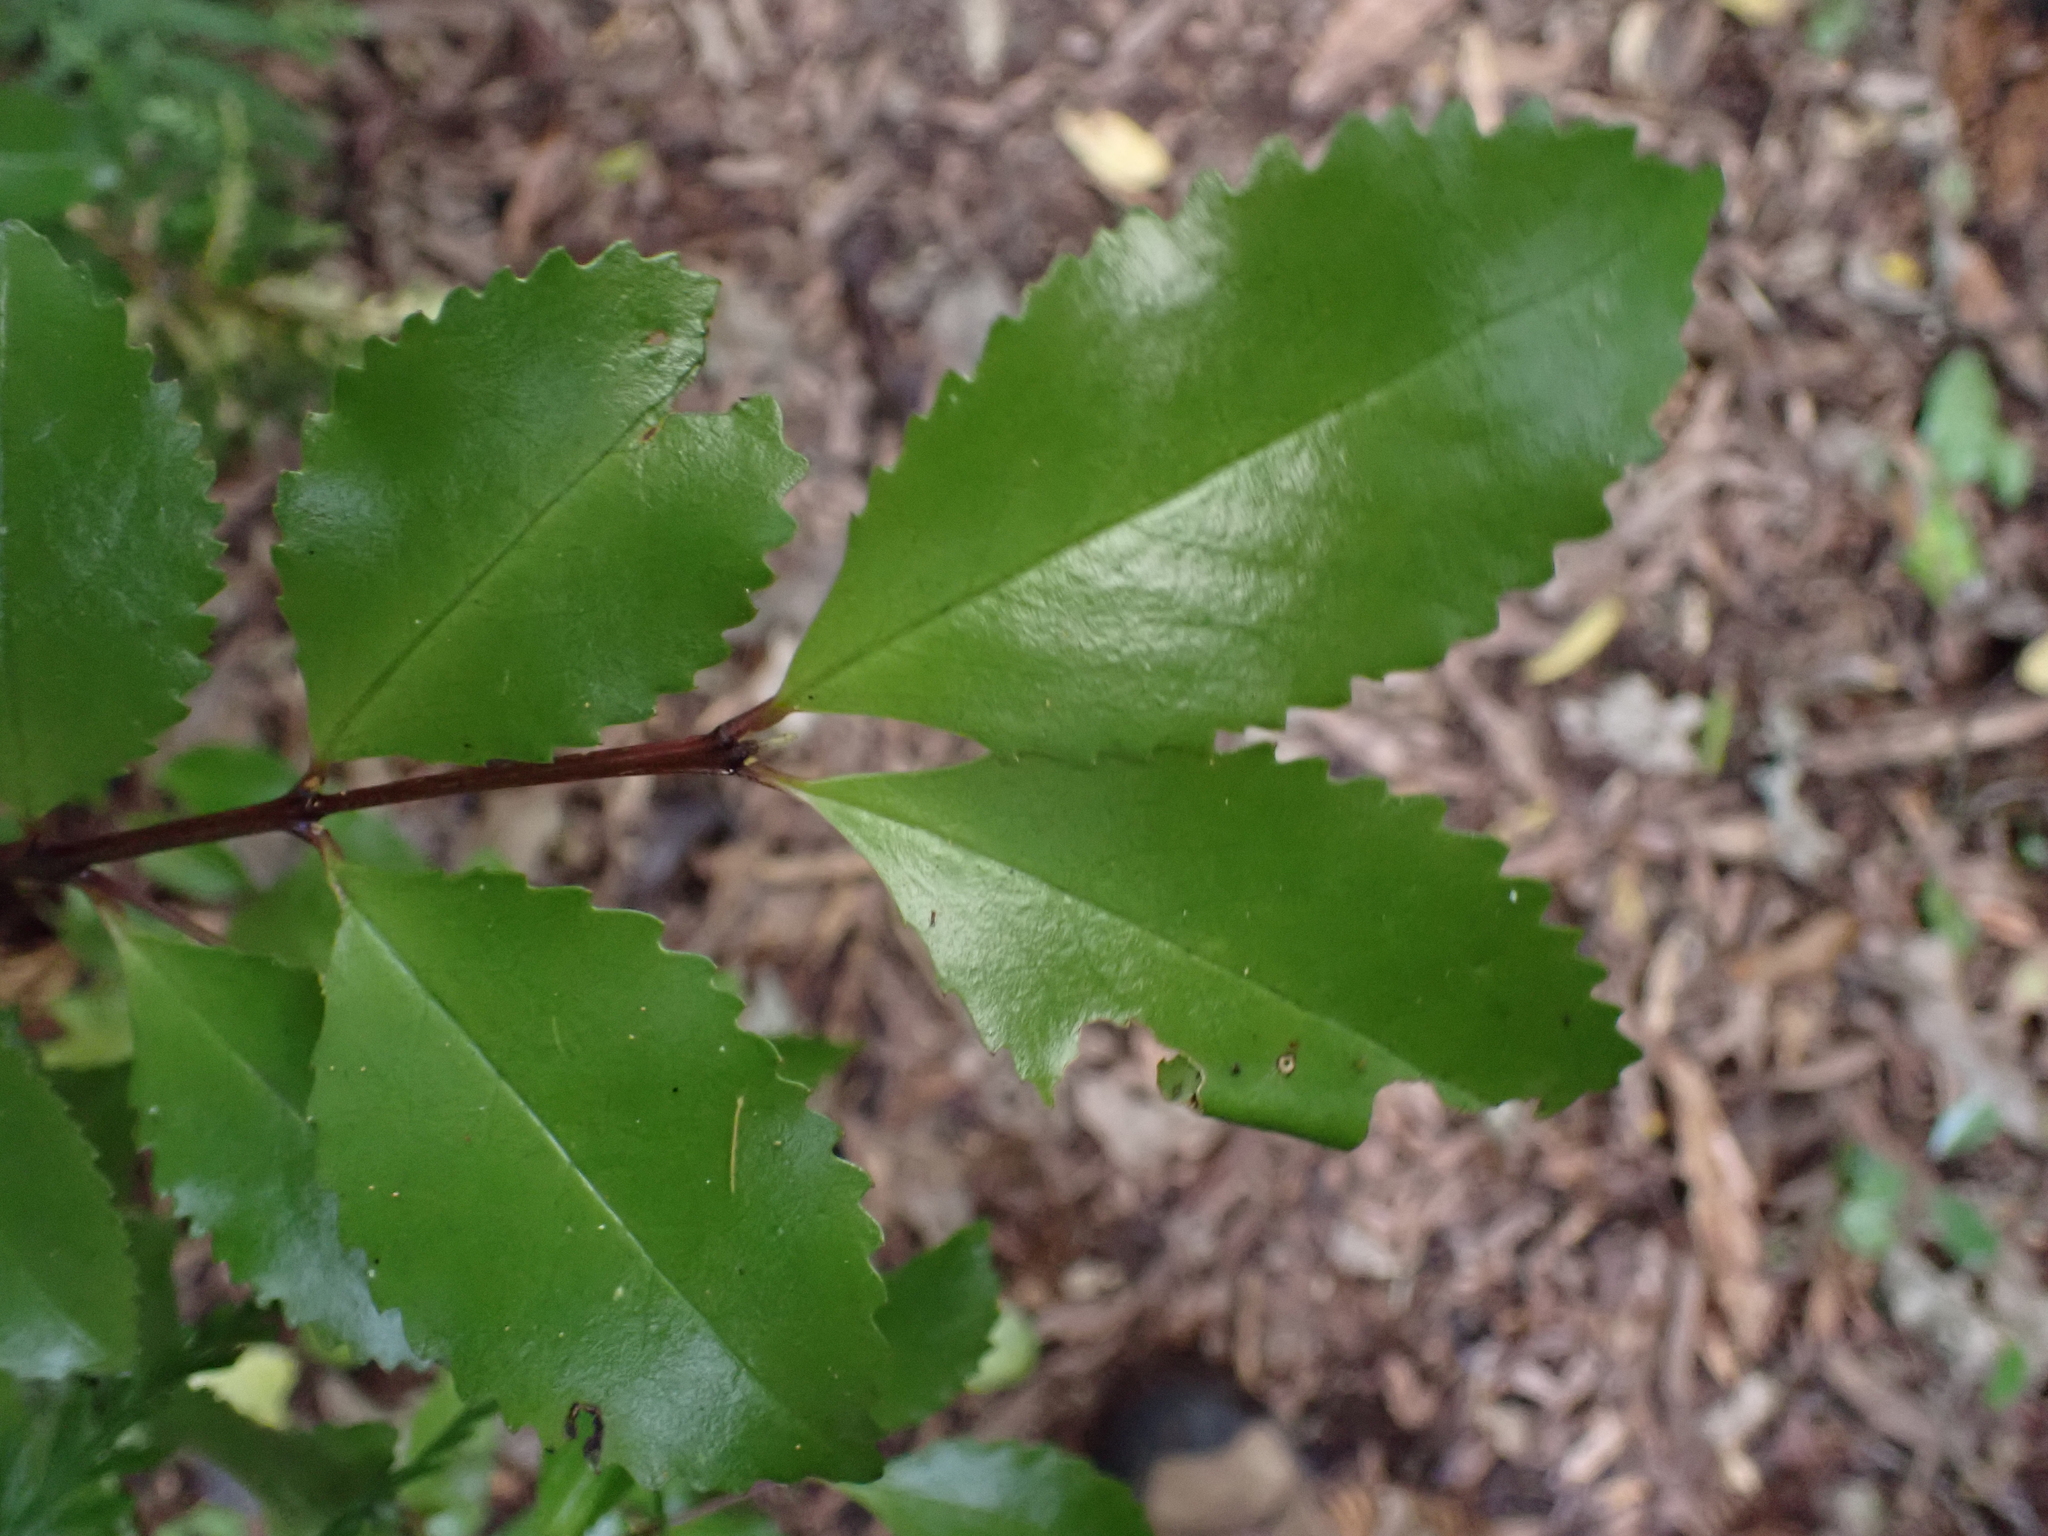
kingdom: Plantae
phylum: Tracheophyta
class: Magnoliopsida
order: Laurales
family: Atherospermataceae
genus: Laurelia
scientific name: Laurelia novae-zelandiae
